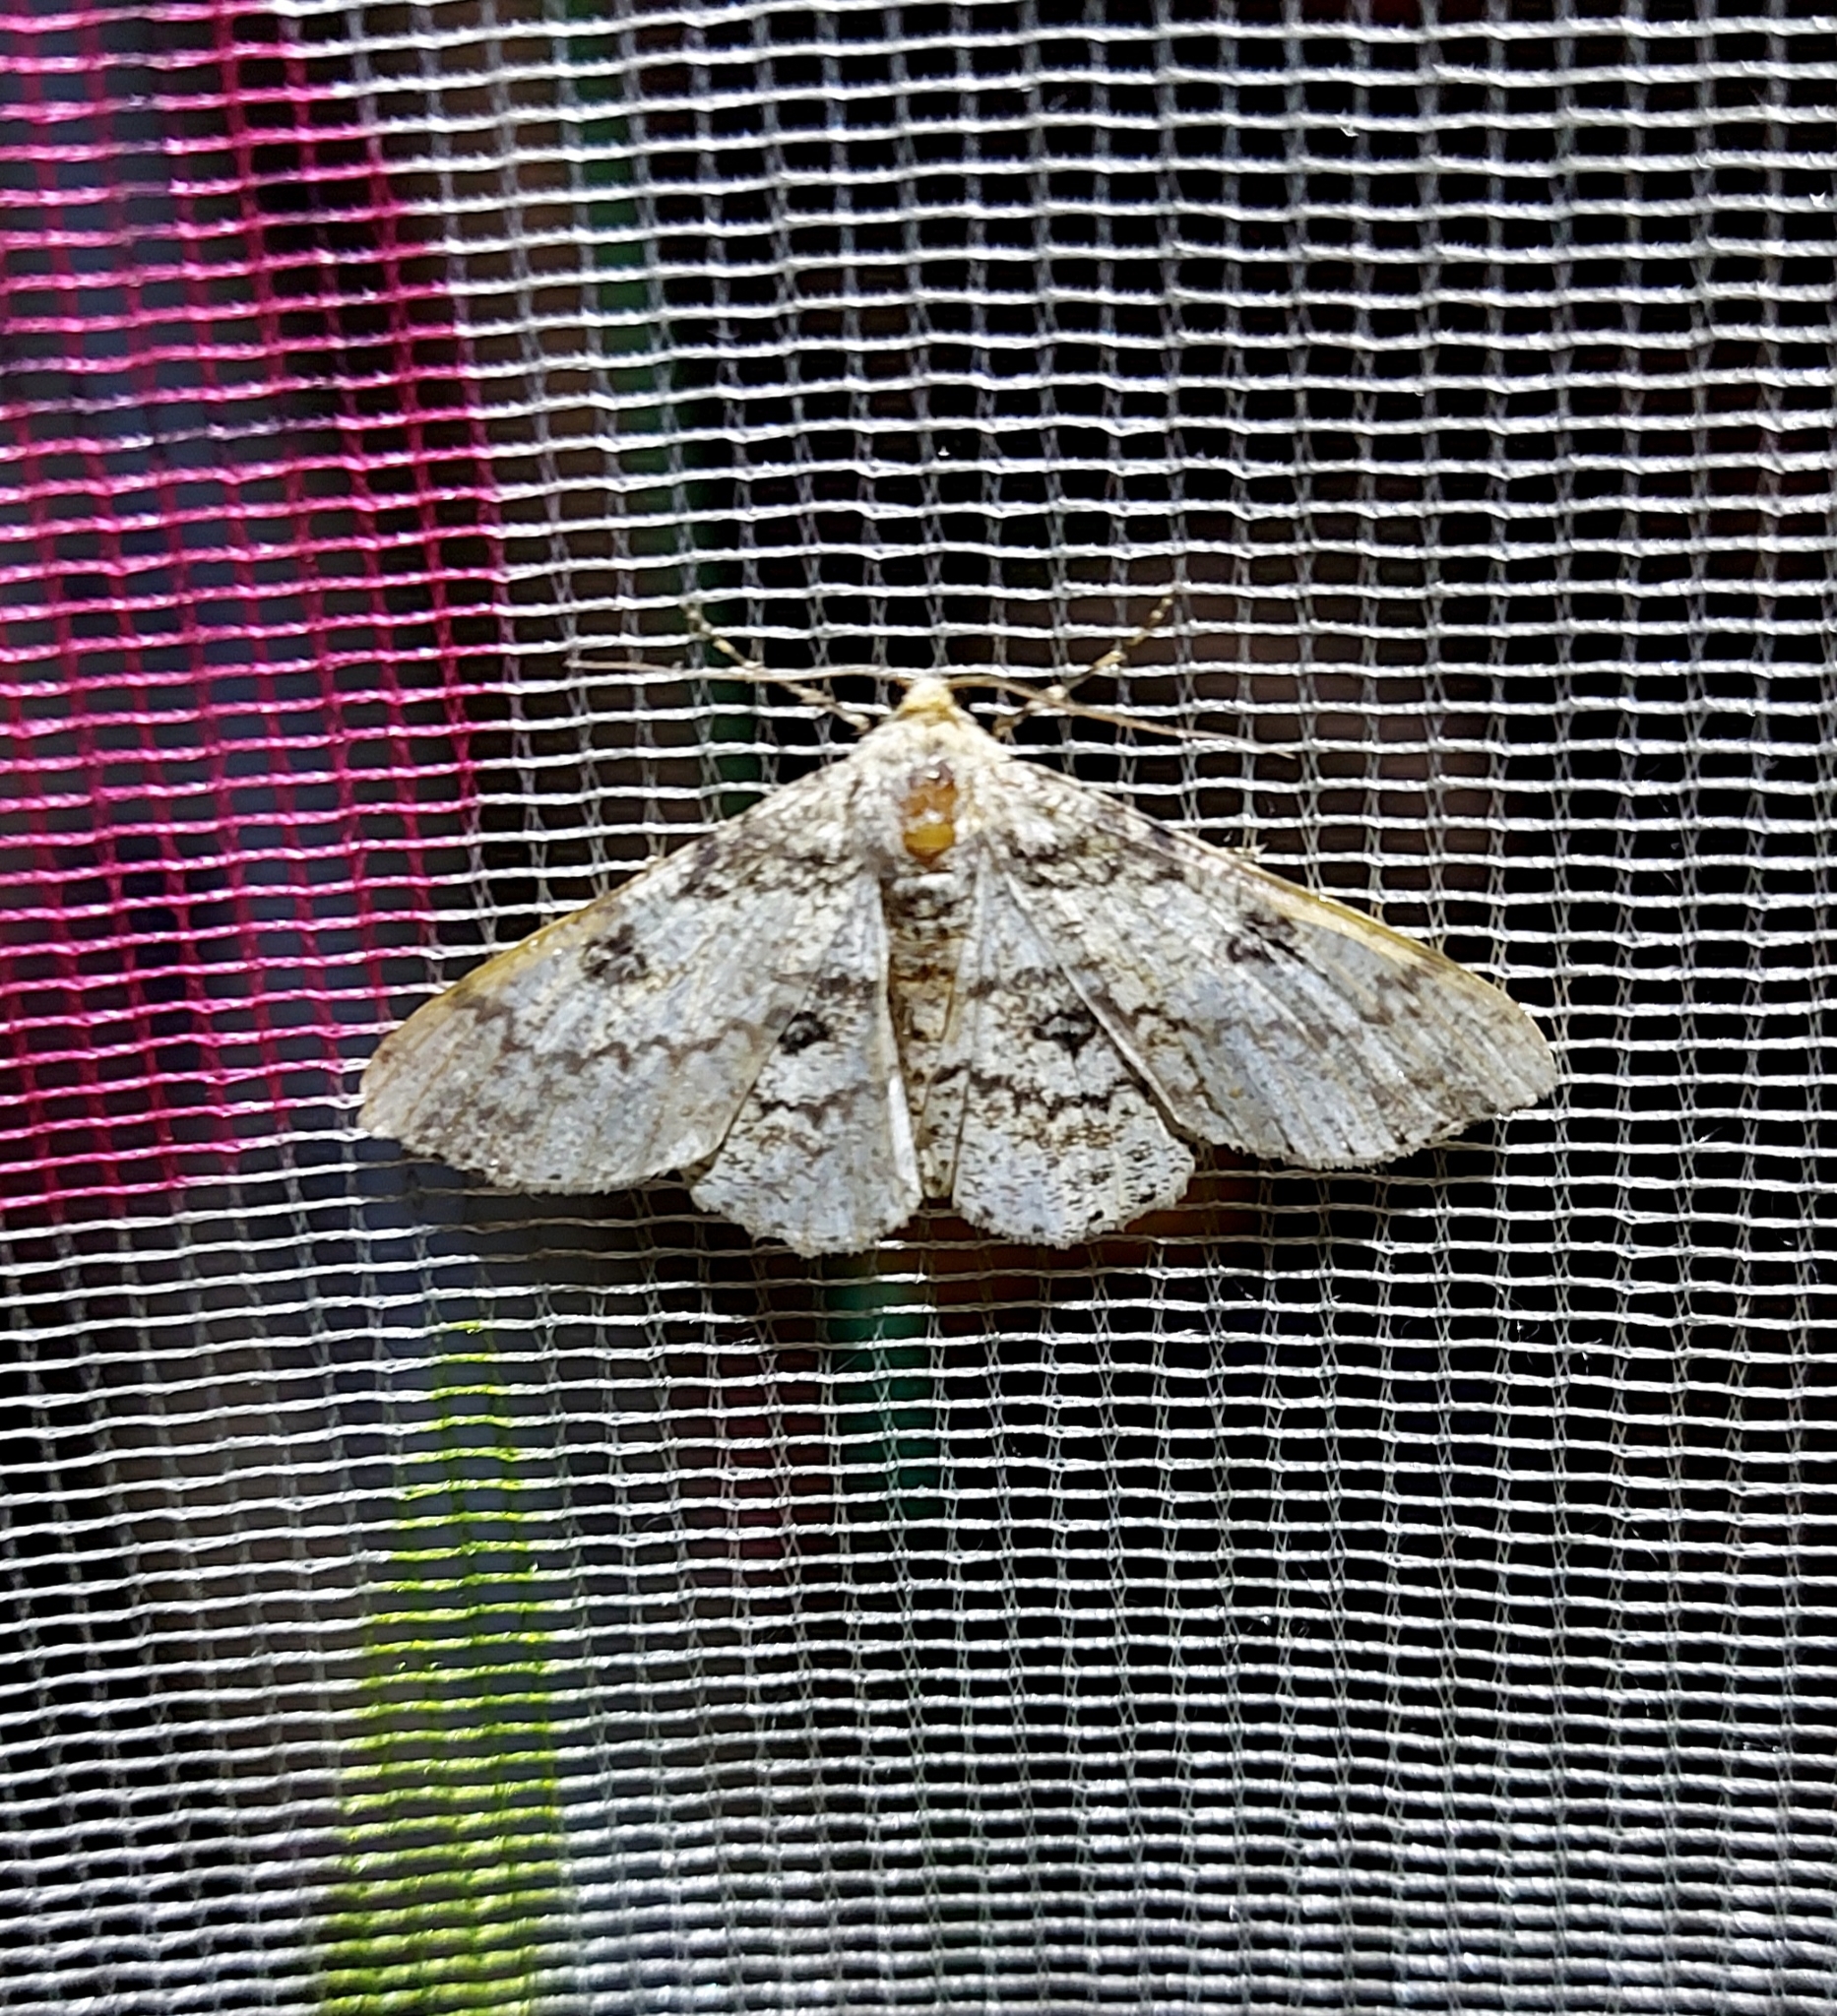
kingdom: Animalia
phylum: Arthropoda
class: Insecta
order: Lepidoptera
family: Geometridae
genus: Ascotis
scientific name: Ascotis selenaria
